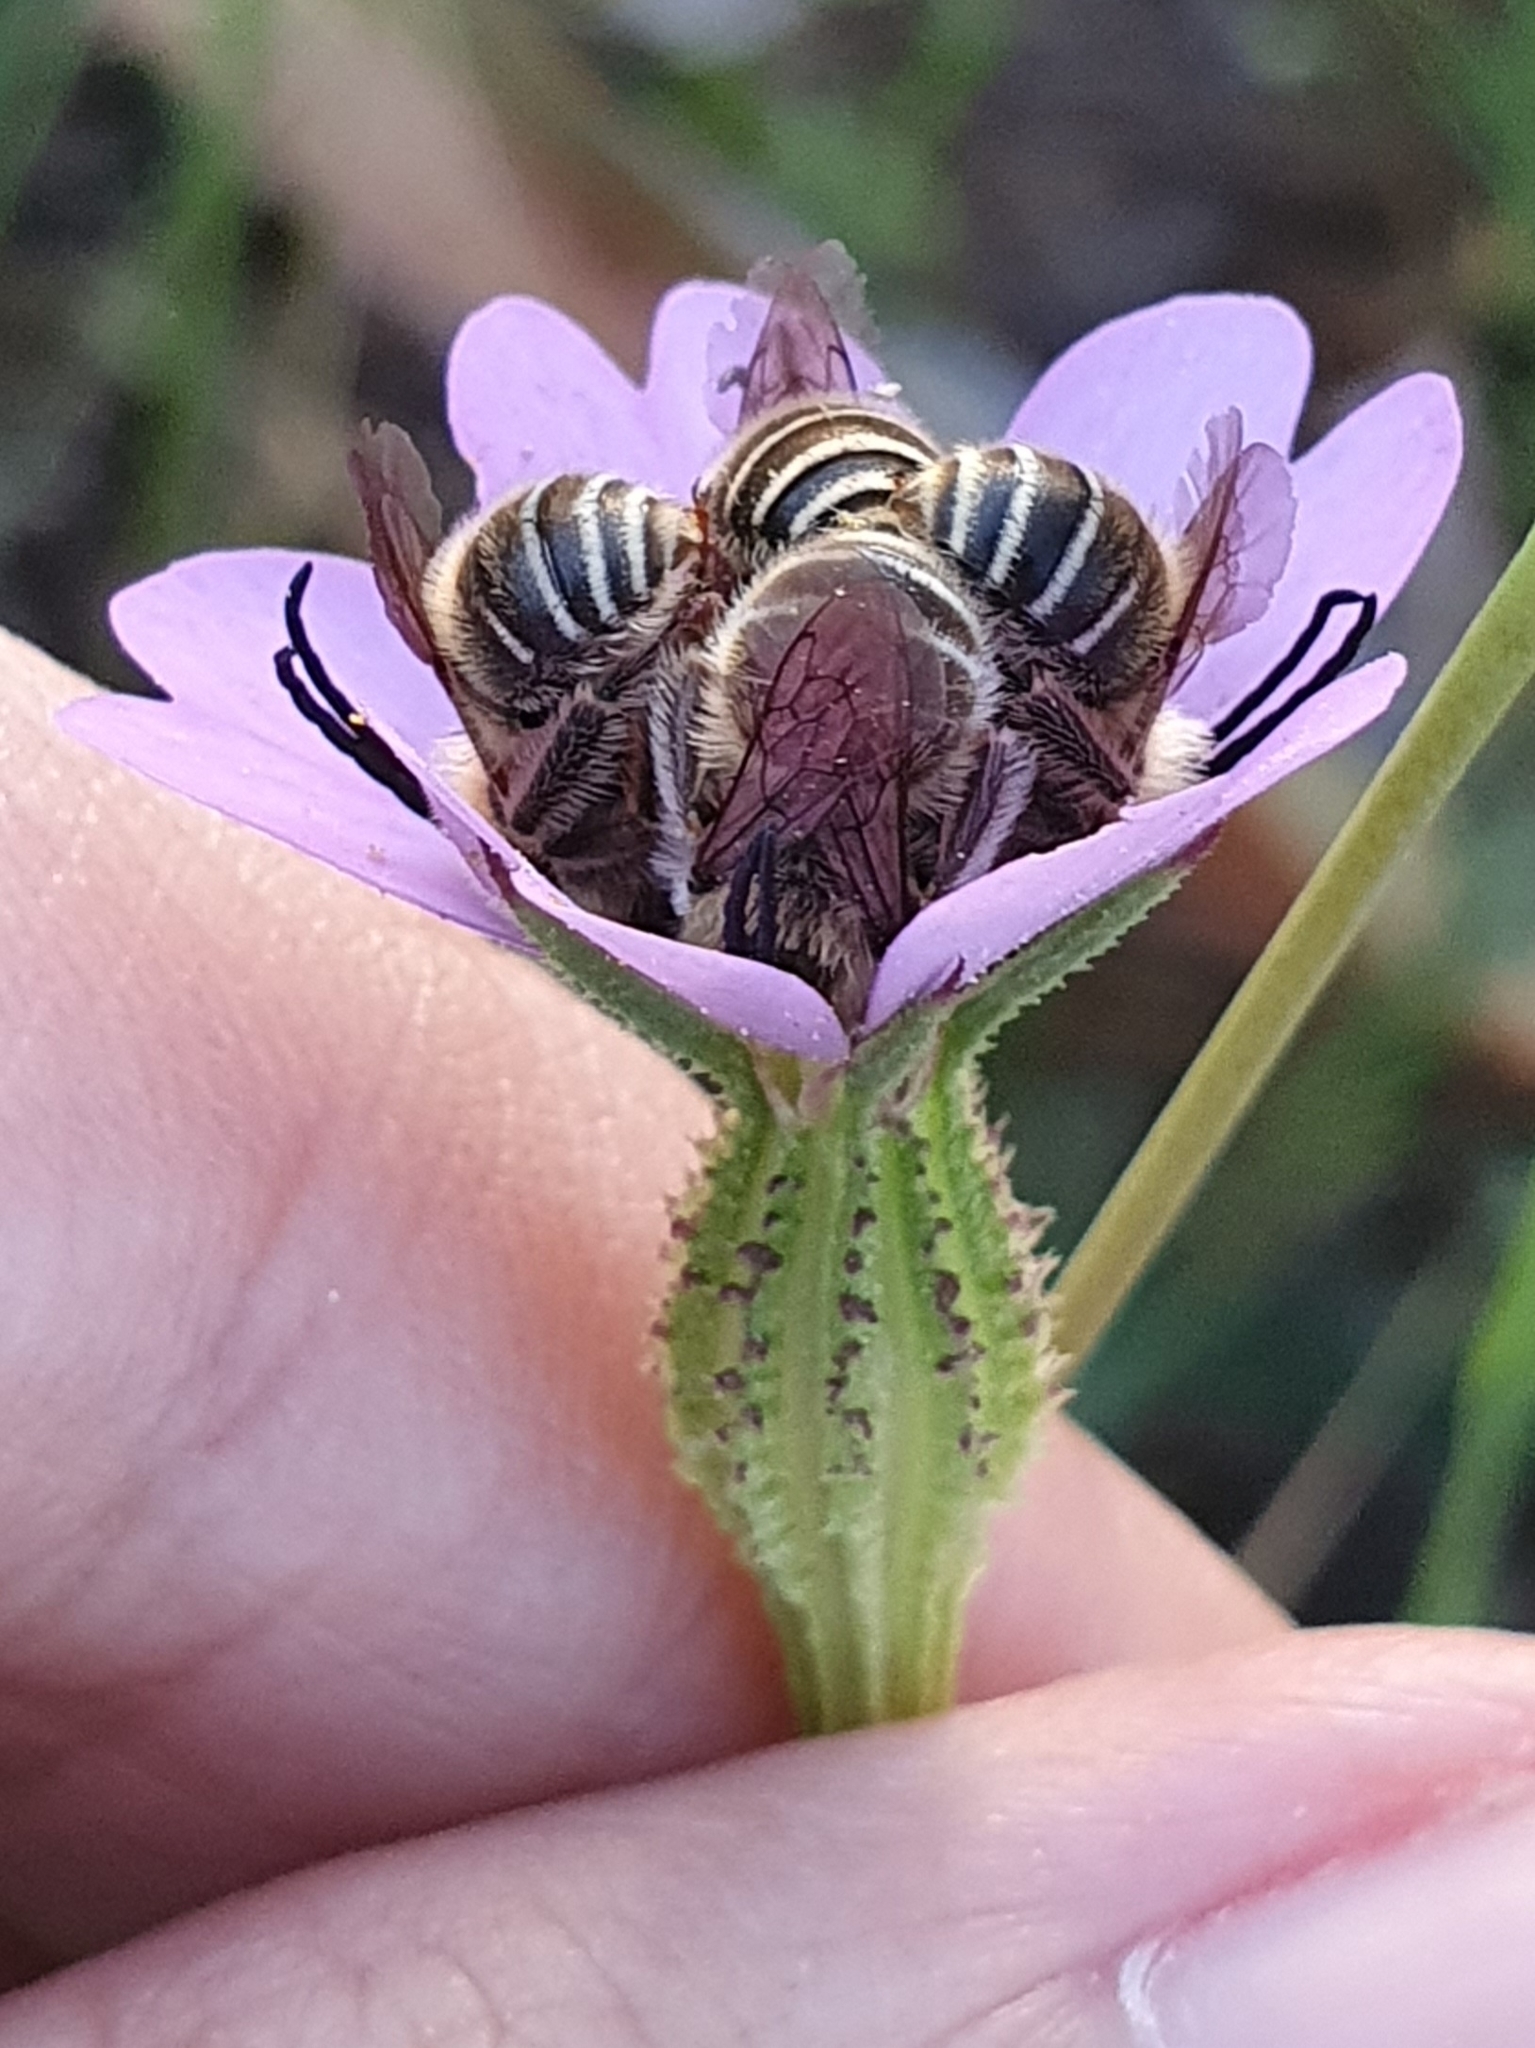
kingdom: Plantae
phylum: Tracheophyta
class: Magnoliopsida
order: Caryophyllales
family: Caryophyllaceae
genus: Eudianthe
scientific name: Eudianthe coeli-rosa
